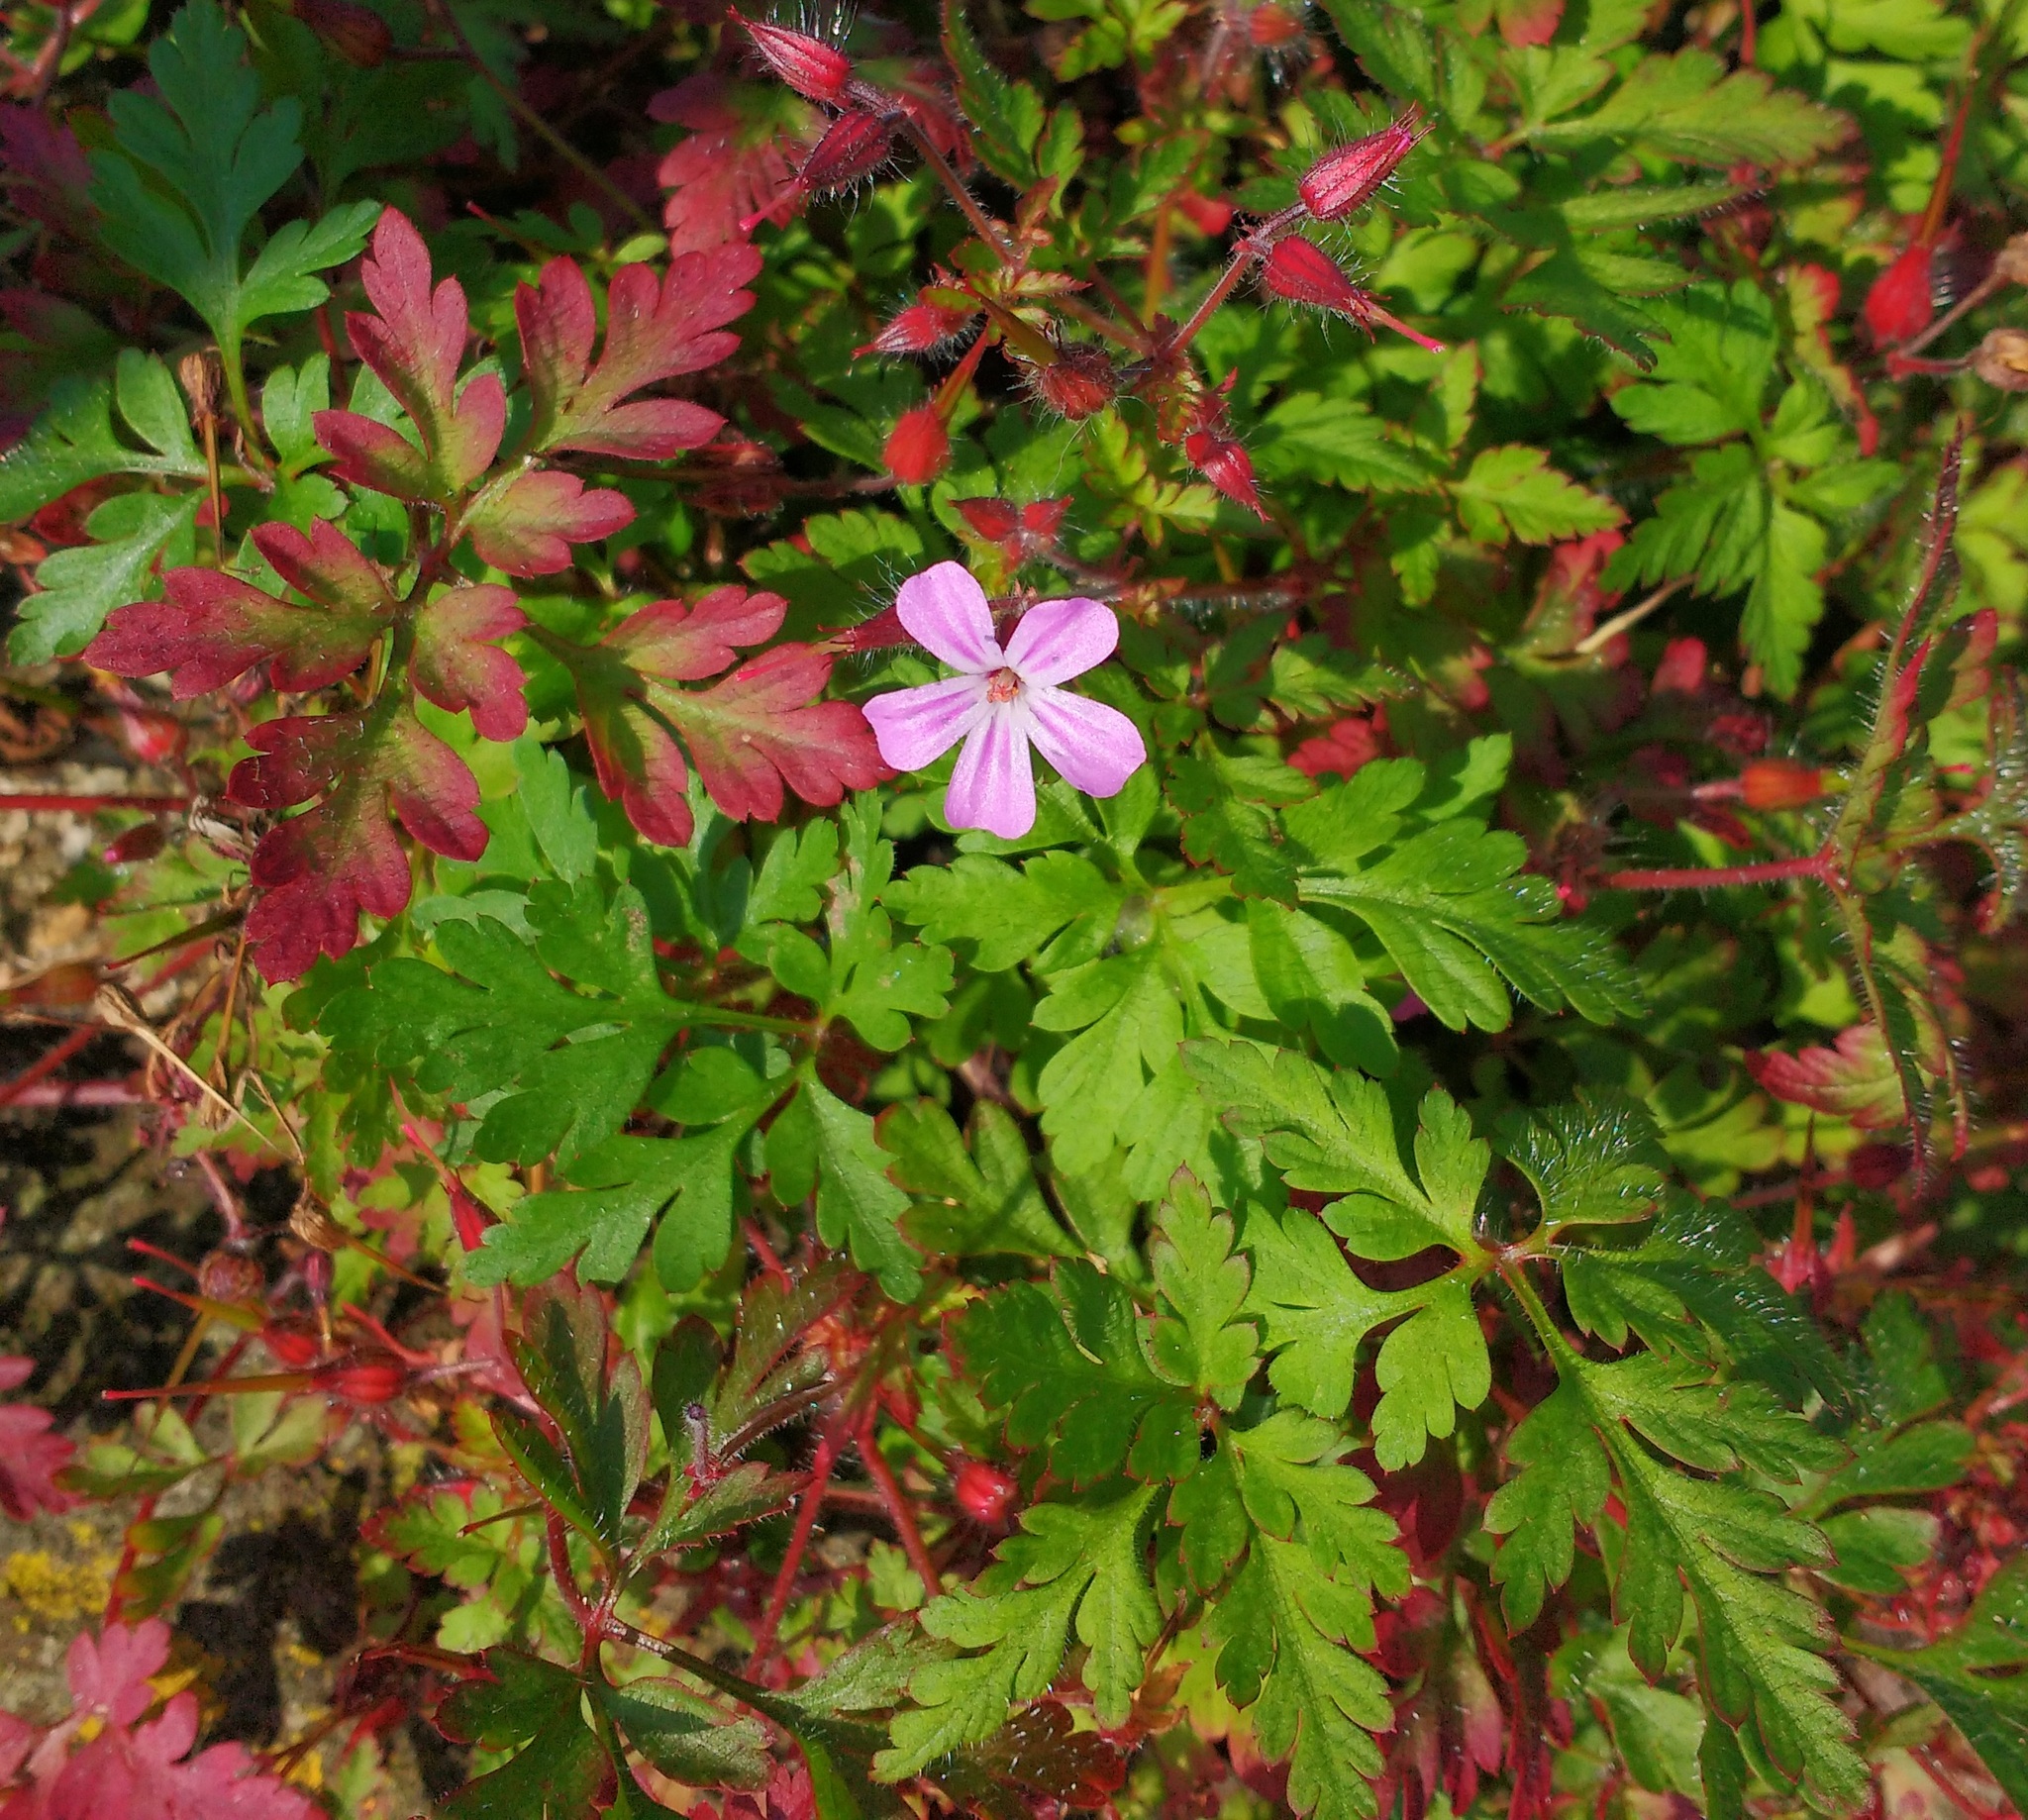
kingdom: Plantae
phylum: Tracheophyta
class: Magnoliopsida
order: Geraniales
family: Geraniaceae
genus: Geranium
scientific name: Geranium robertianum
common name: Herb-robert
